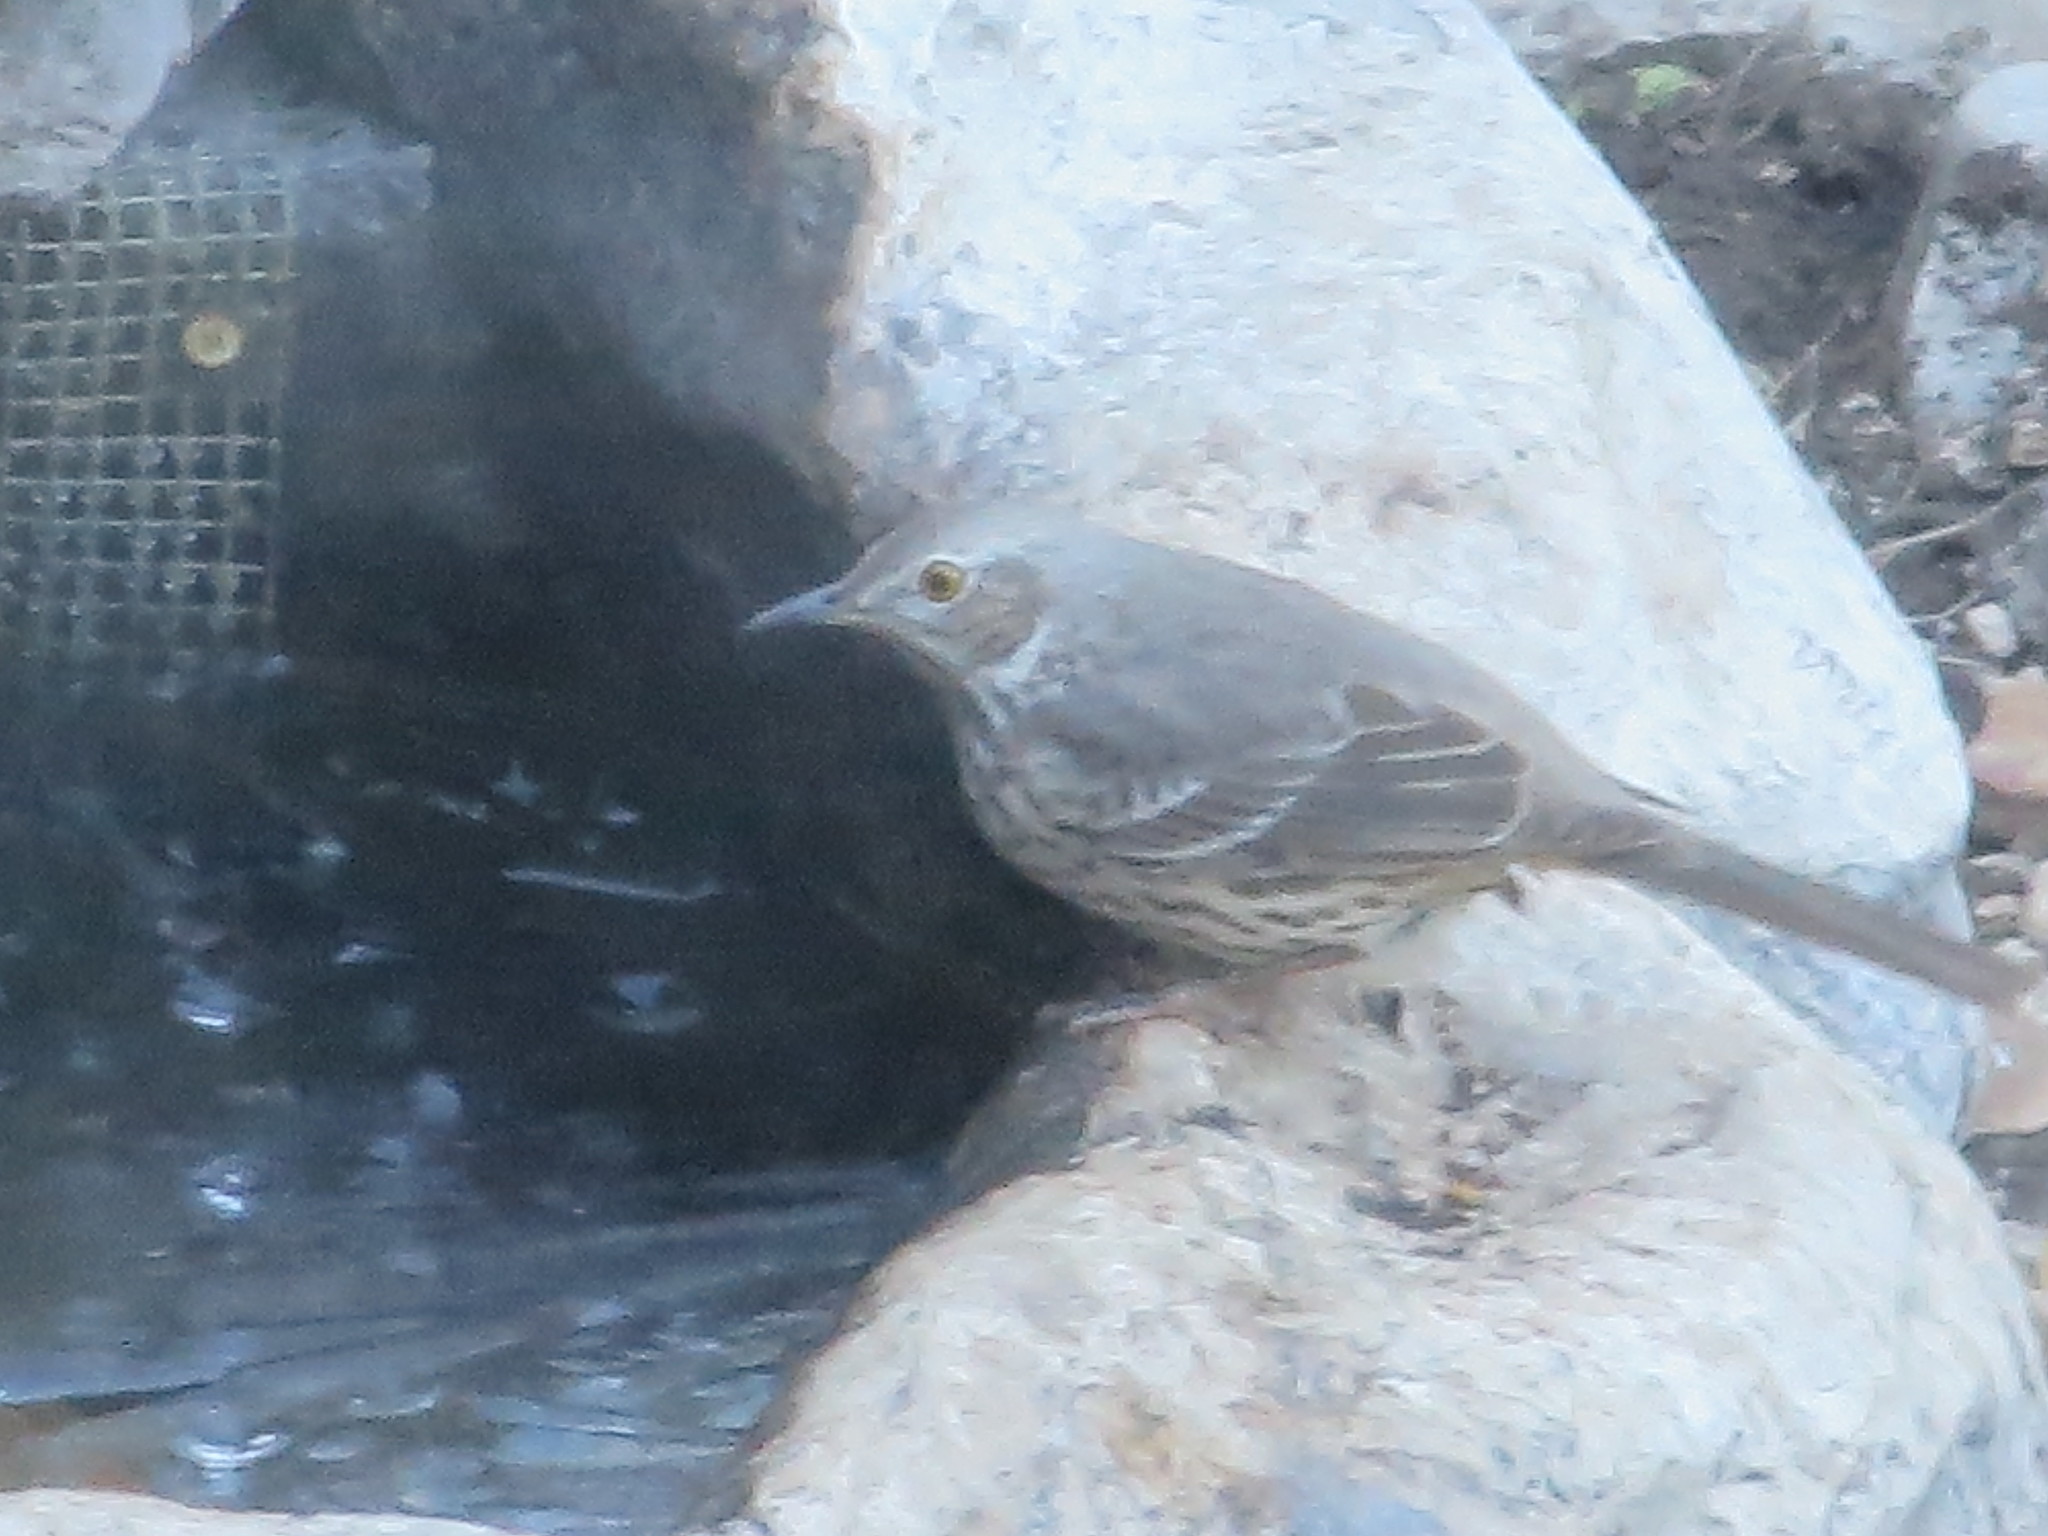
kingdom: Animalia
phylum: Chordata
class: Aves
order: Passeriformes
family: Mimidae
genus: Oreoscoptes
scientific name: Oreoscoptes montanus
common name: Sage thrasher
